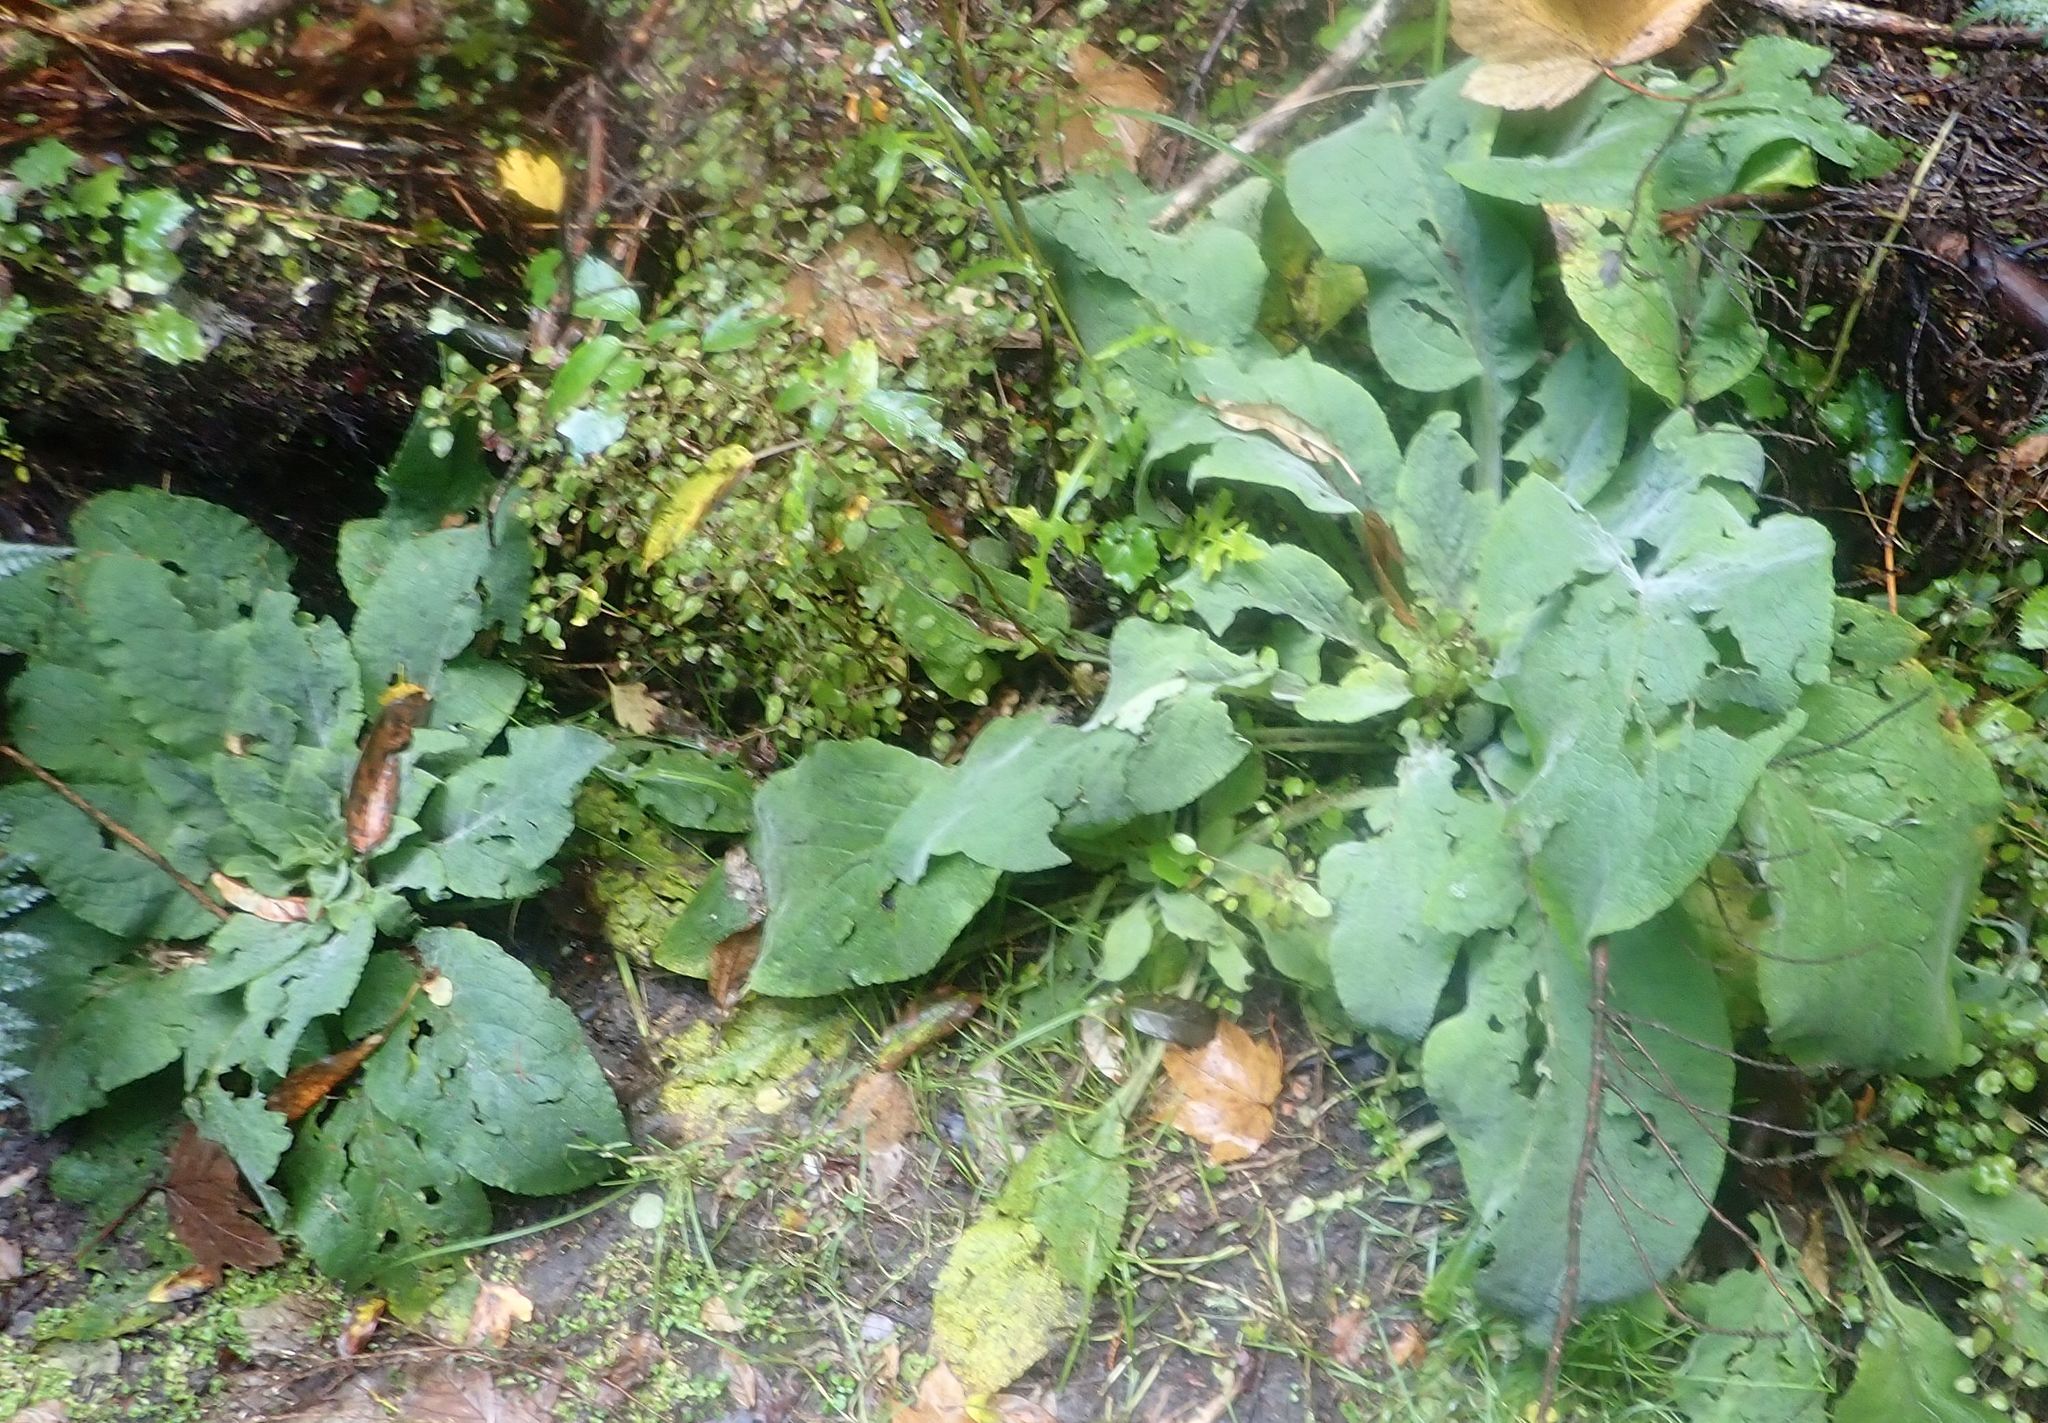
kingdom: Plantae
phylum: Tracheophyta
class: Magnoliopsida
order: Lamiales
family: Plantaginaceae
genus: Digitalis
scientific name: Digitalis purpurea
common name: Foxglove
